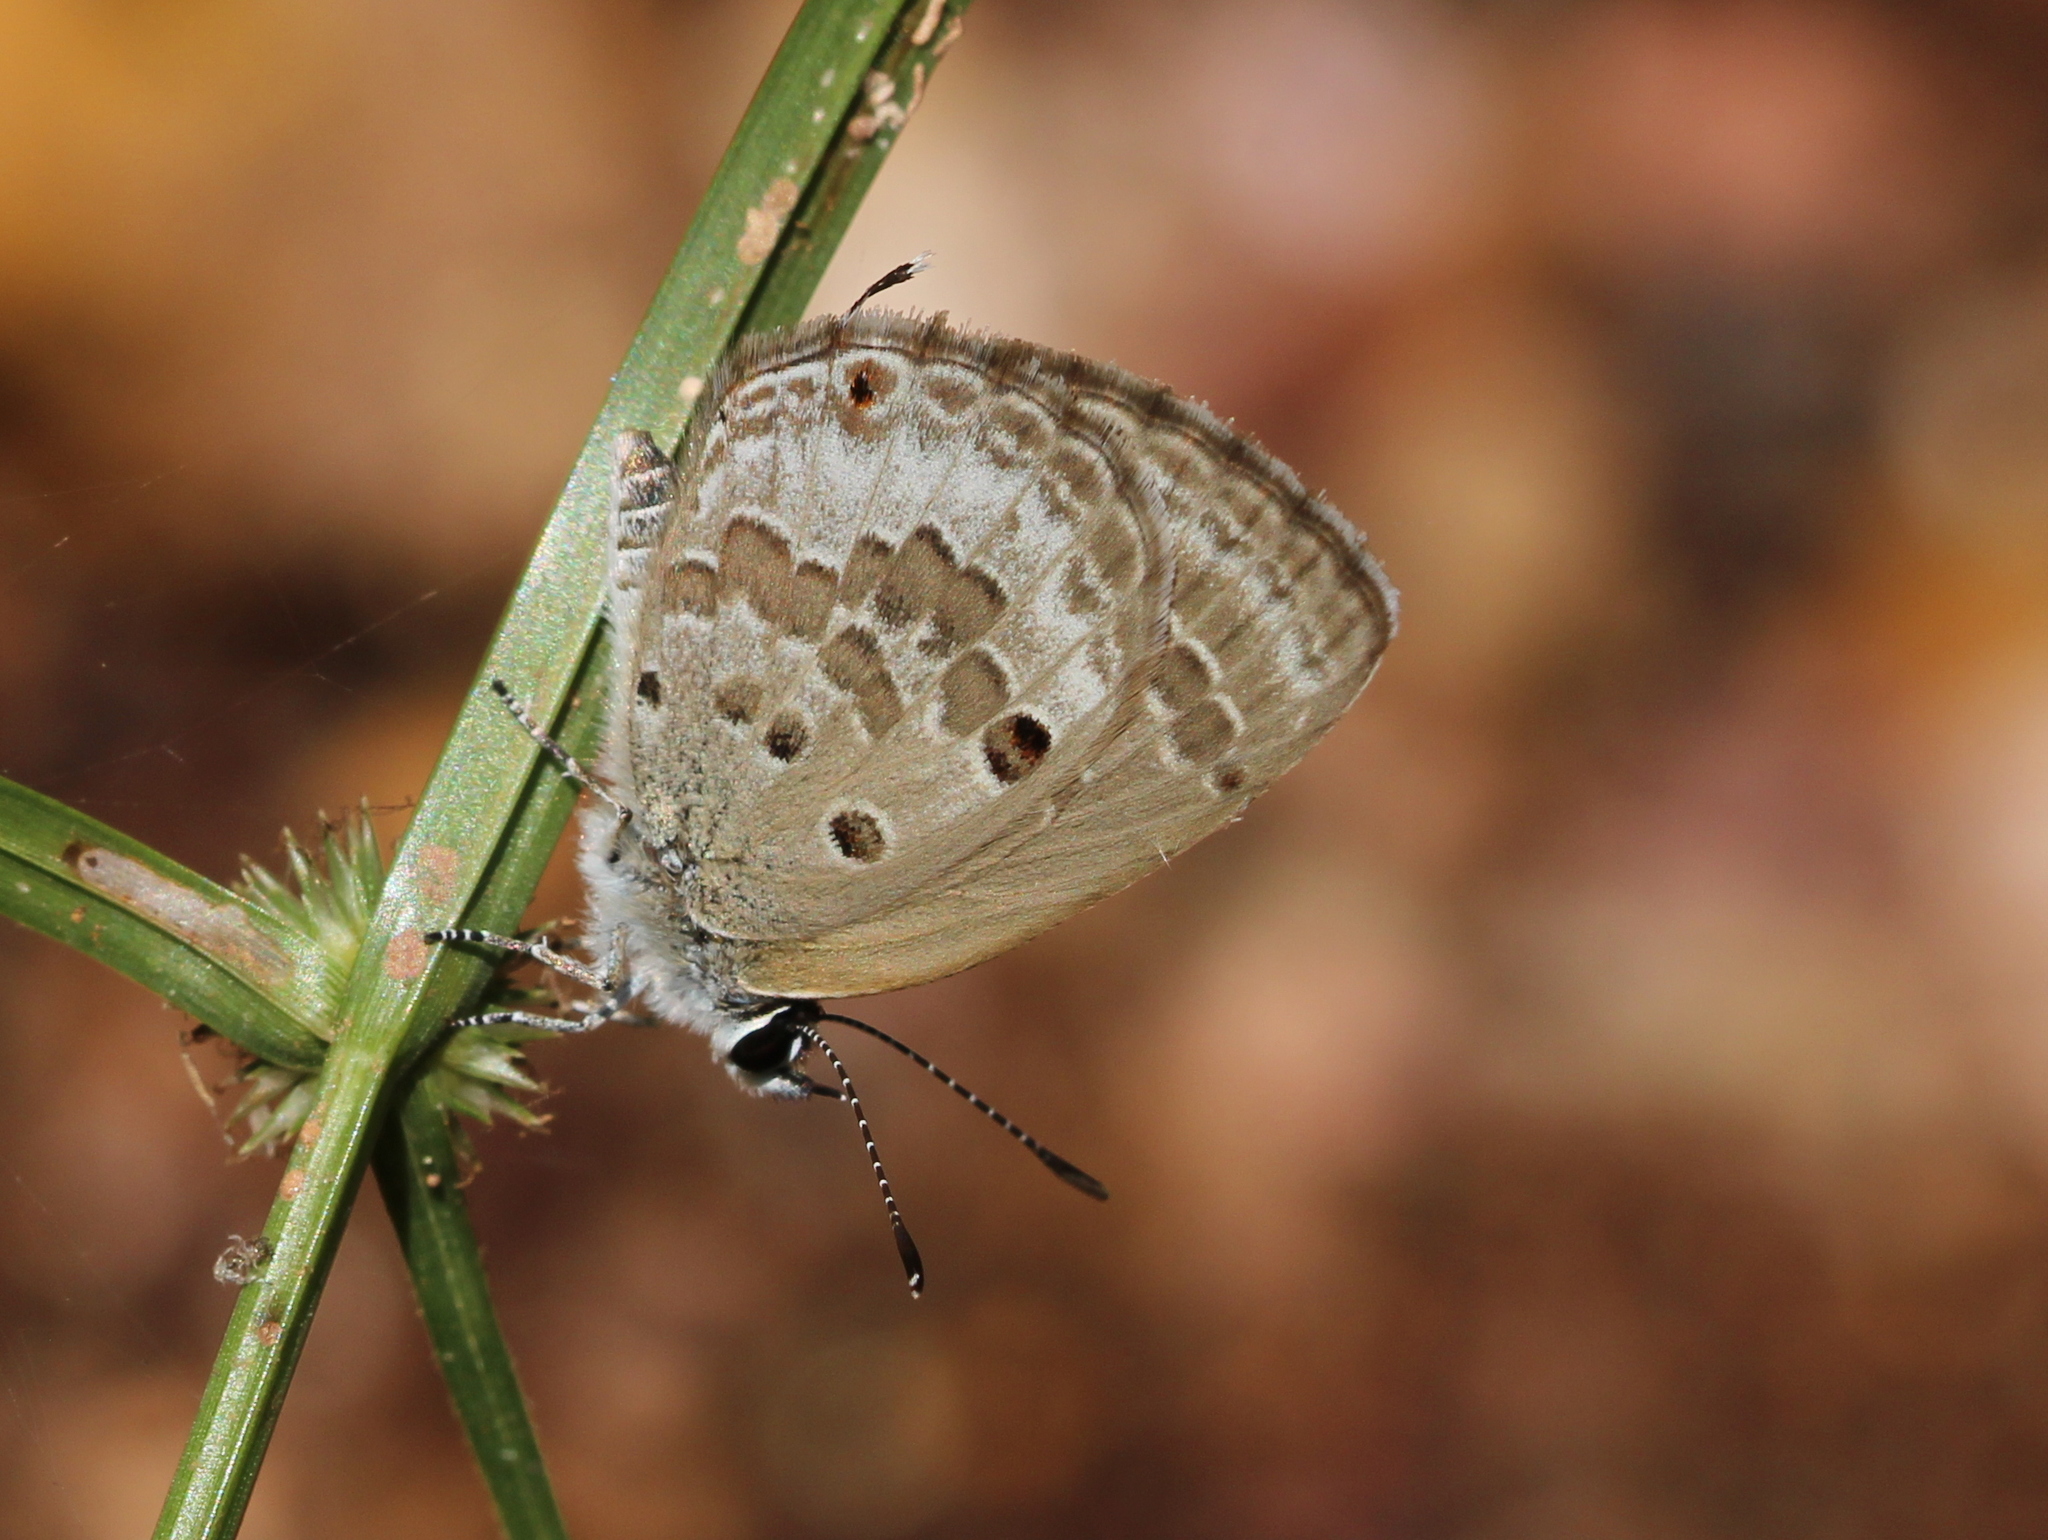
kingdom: Animalia
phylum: Arthropoda
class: Insecta
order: Lepidoptera
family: Lycaenidae
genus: Luthrodes
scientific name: Luthrodes pandava
